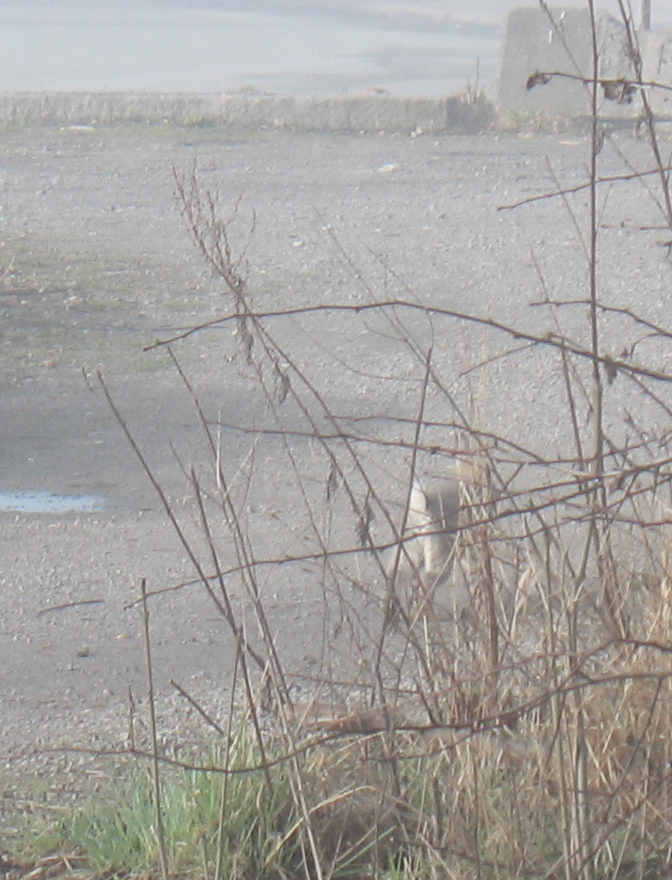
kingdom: Animalia
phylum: Chordata
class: Mammalia
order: Lagomorpha
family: Leporidae
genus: Oryctolagus
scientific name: Oryctolagus cuniculus
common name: European rabbit
